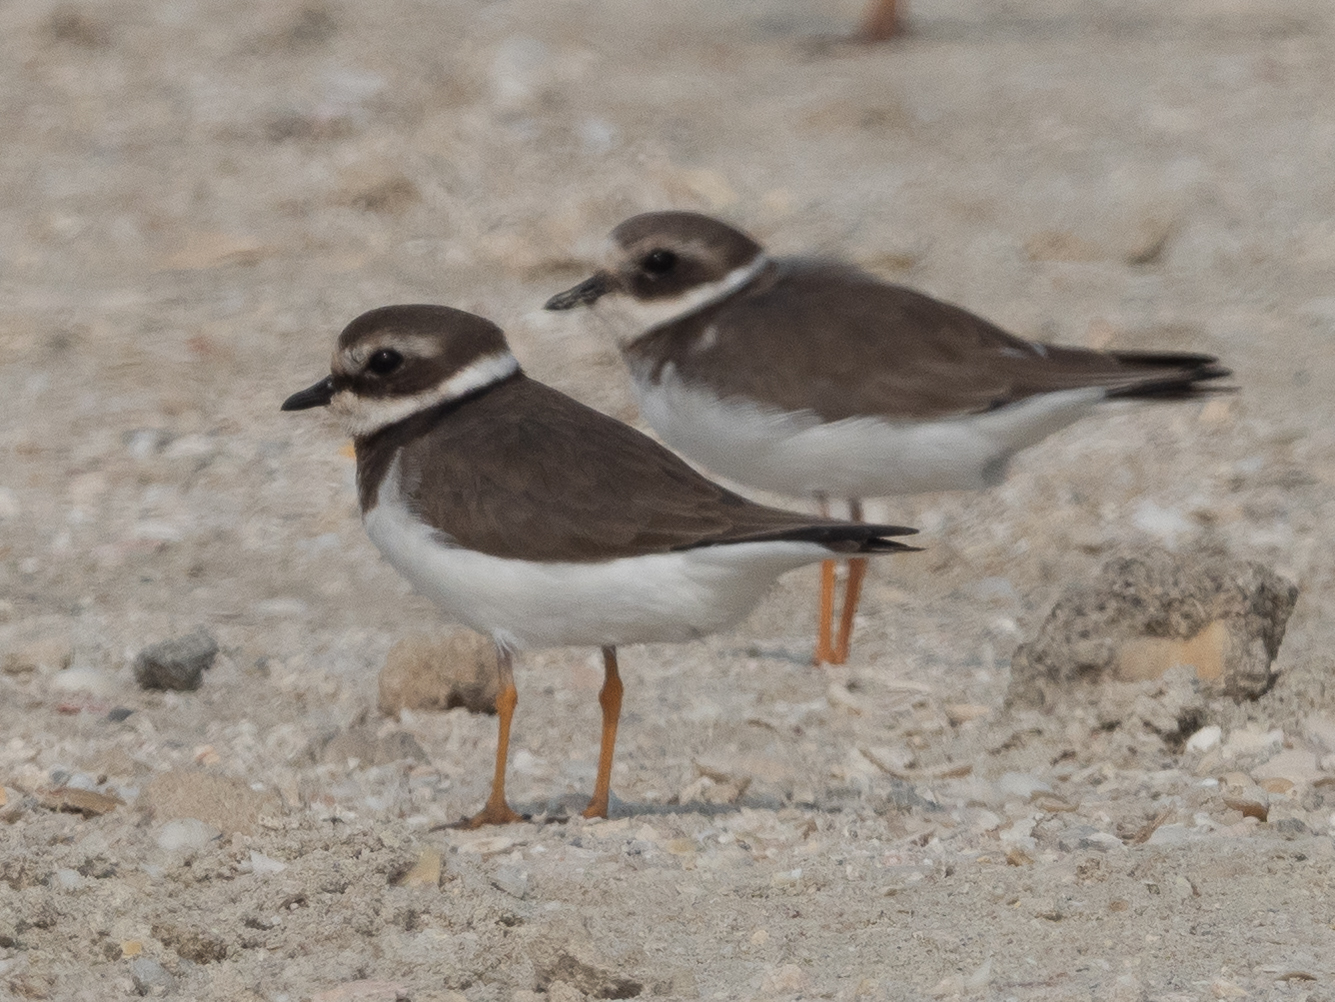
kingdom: Animalia
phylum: Chordata
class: Aves
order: Charadriiformes
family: Charadriidae
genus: Charadrius
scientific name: Charadrius hiaticula
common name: Common ringed plover
